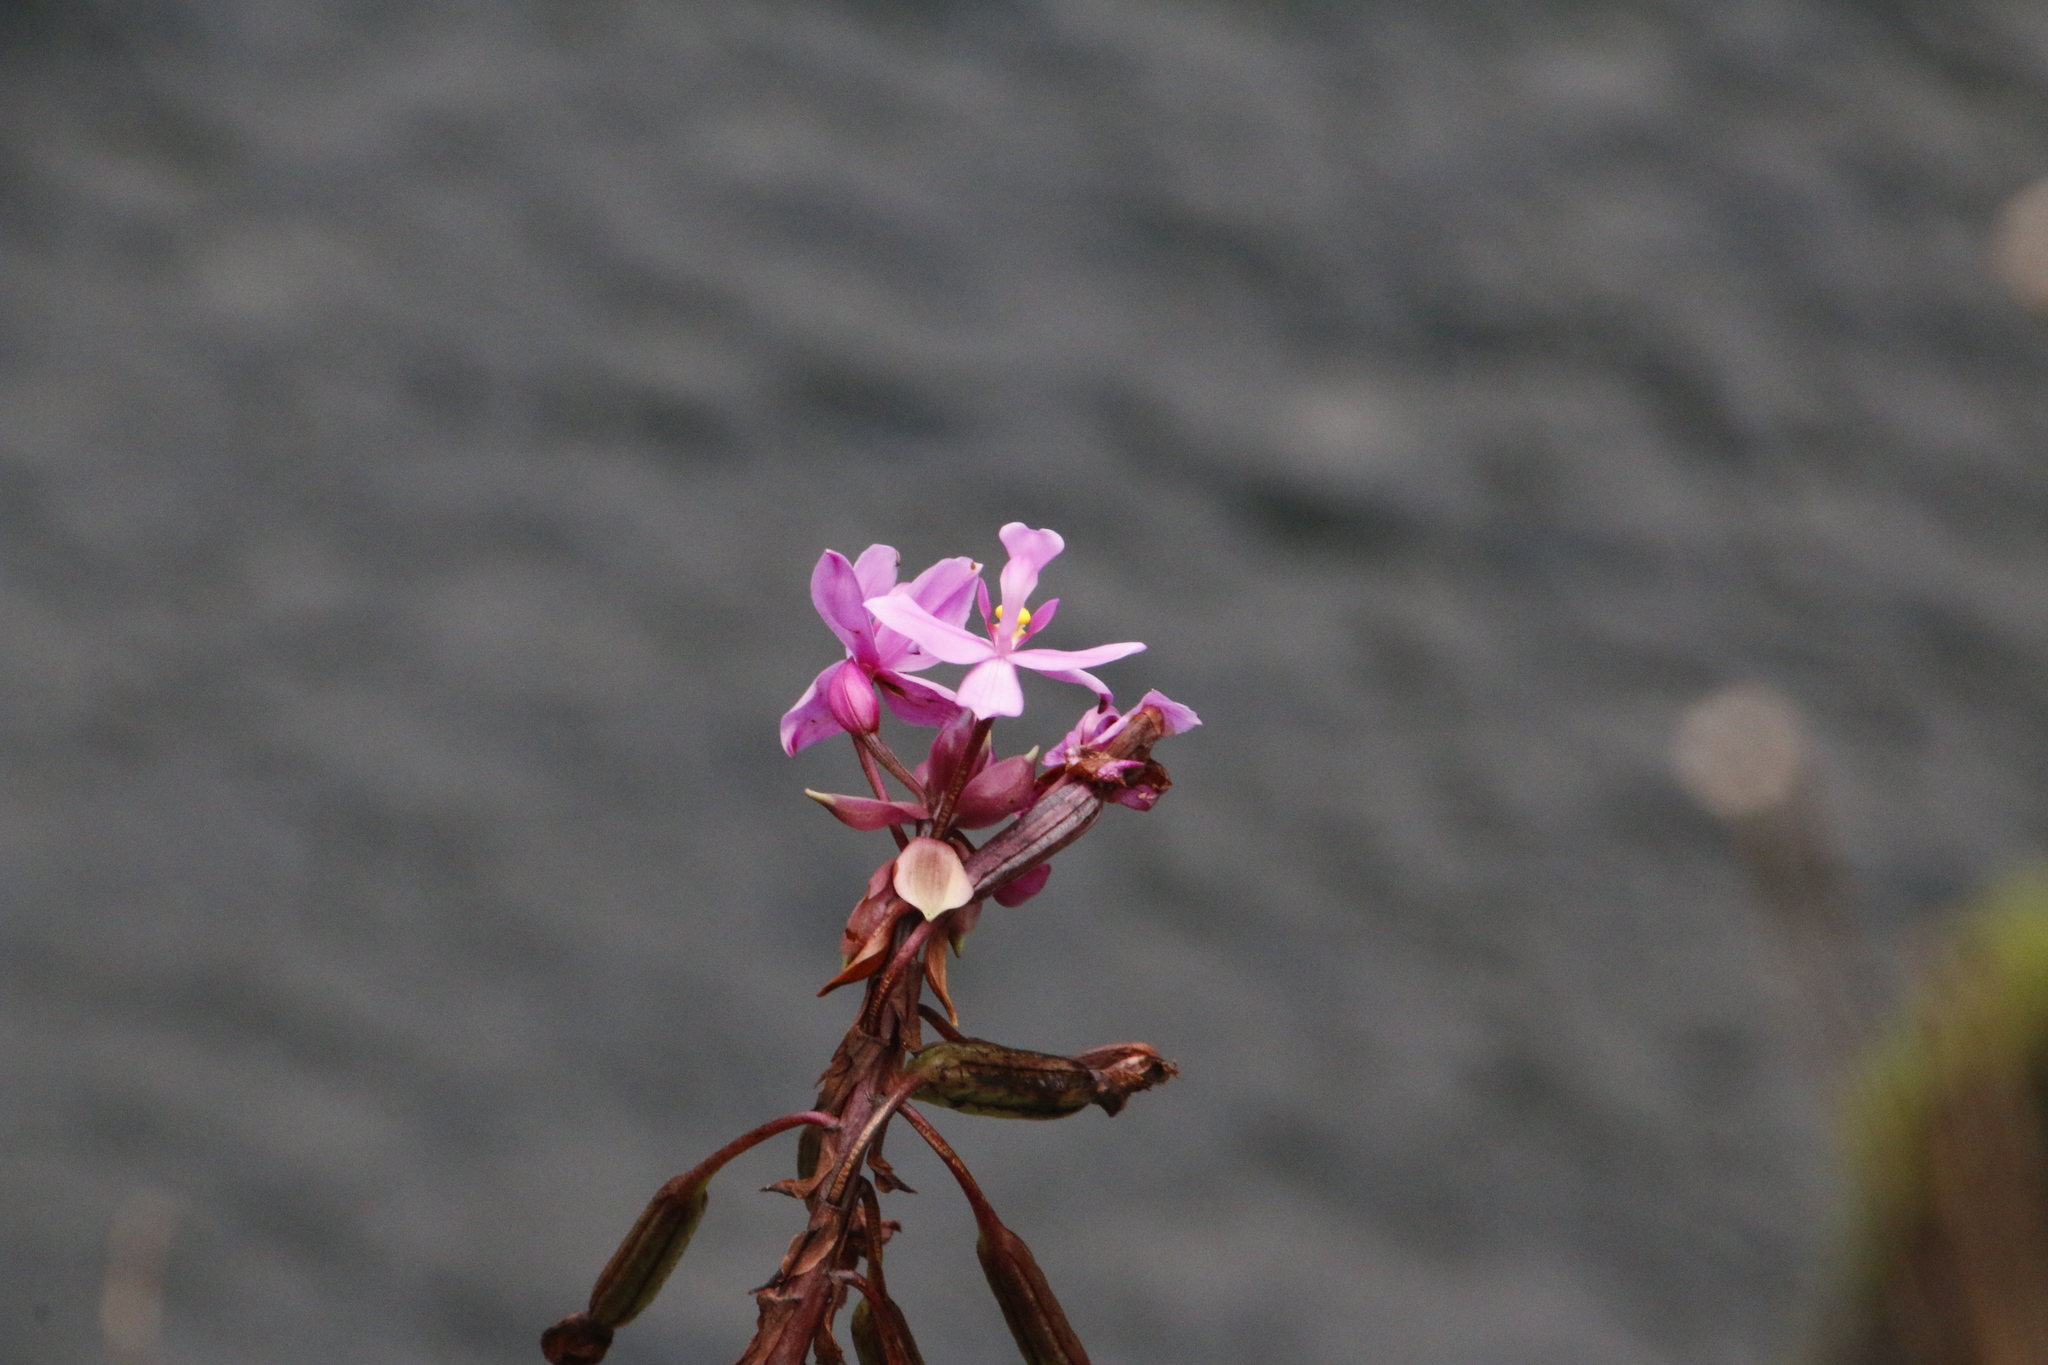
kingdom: Plantae
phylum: Tracheophyta
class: Liliopsida
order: Asparagales
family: Orchidaceae
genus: Spathoglottis
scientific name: Spathoglottis plicata
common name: Philippine ground orchid
